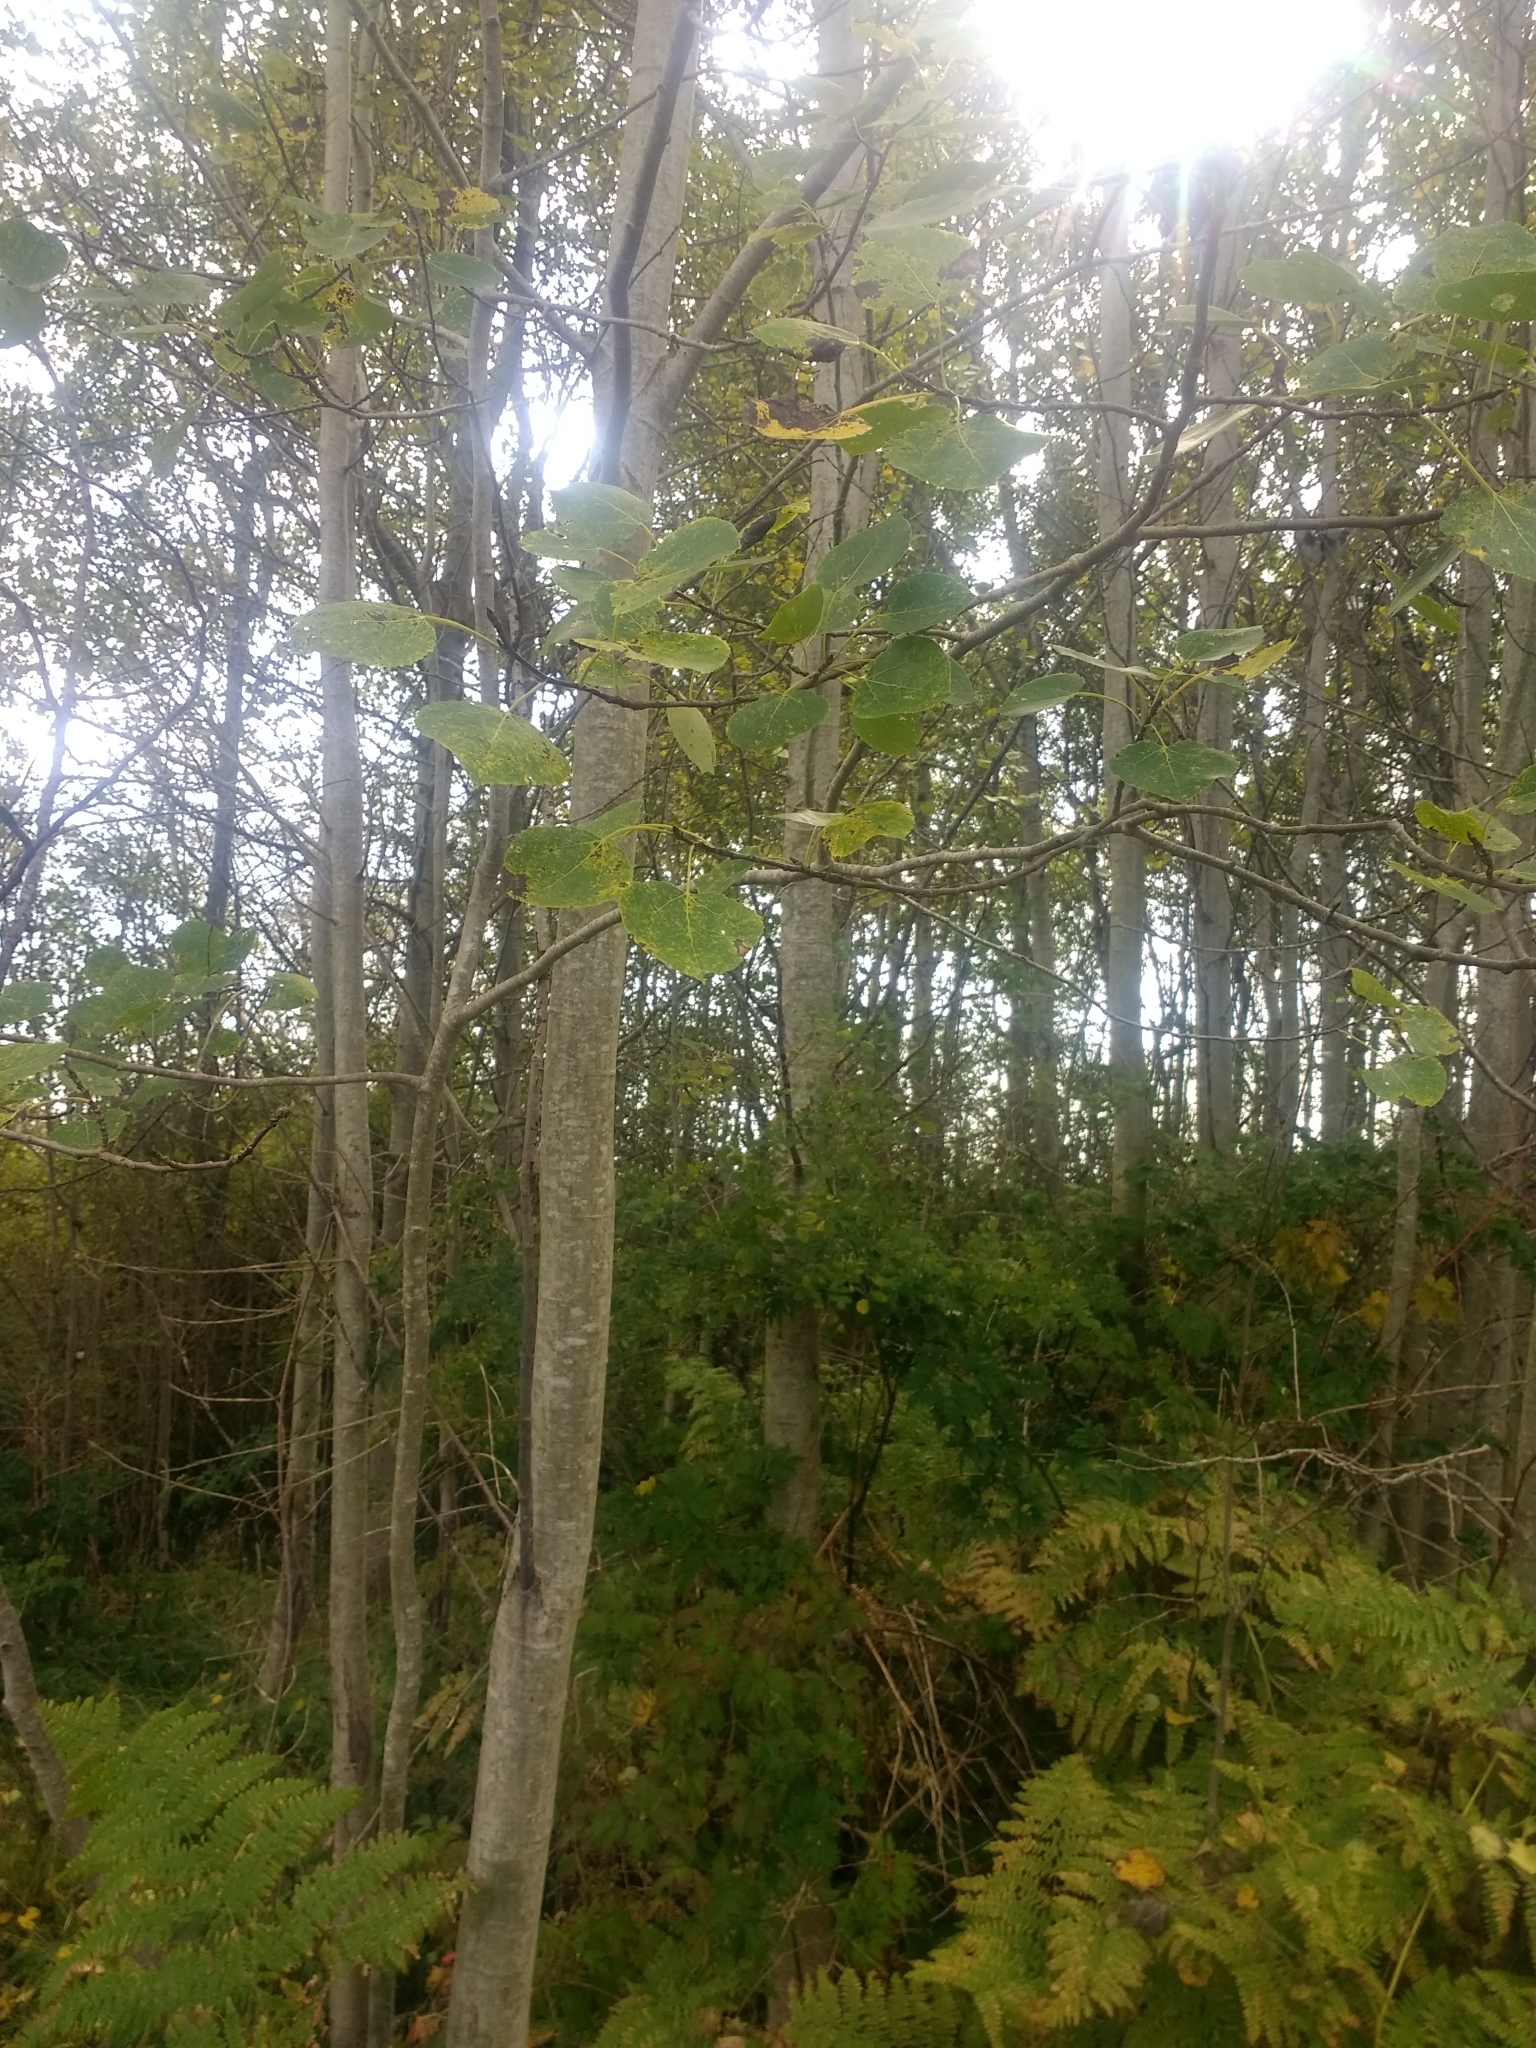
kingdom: Plantae
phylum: Tracheophyta
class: Magnoliopsida
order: Malpighiales
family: Salicaceae
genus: Populus
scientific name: Populus tremuloides
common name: Quaking aspen
